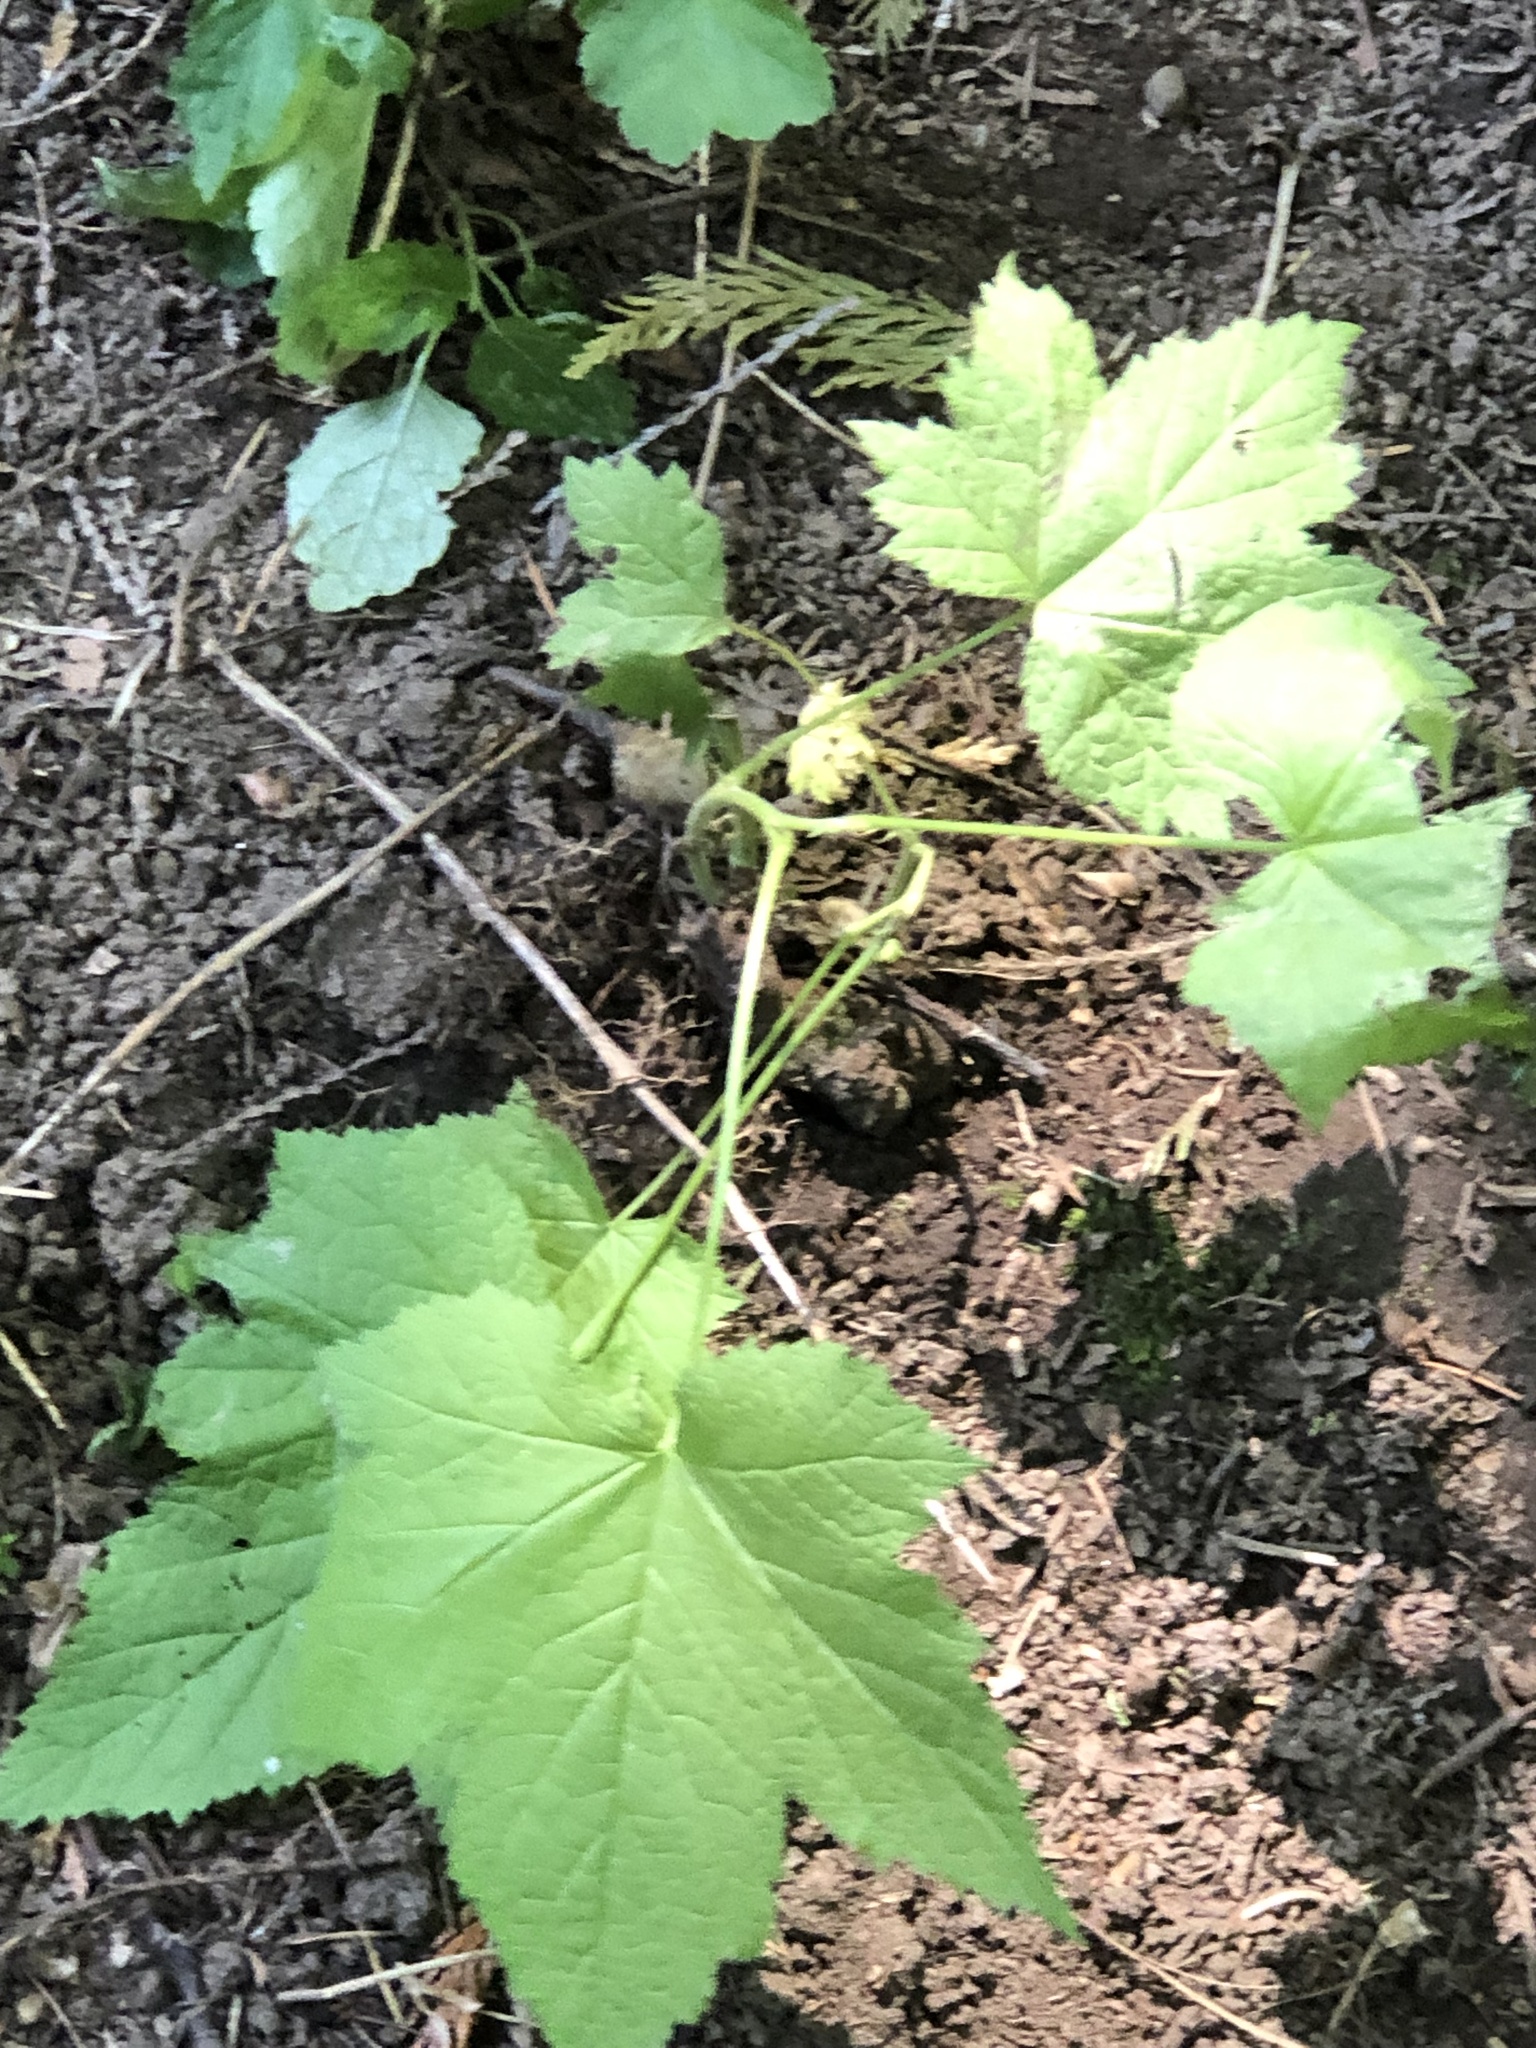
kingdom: Plantae
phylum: Tracheophyta
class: Magnoliopsida
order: Rosales
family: Rosaceae
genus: Rubus
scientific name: Rubus parviflorus
